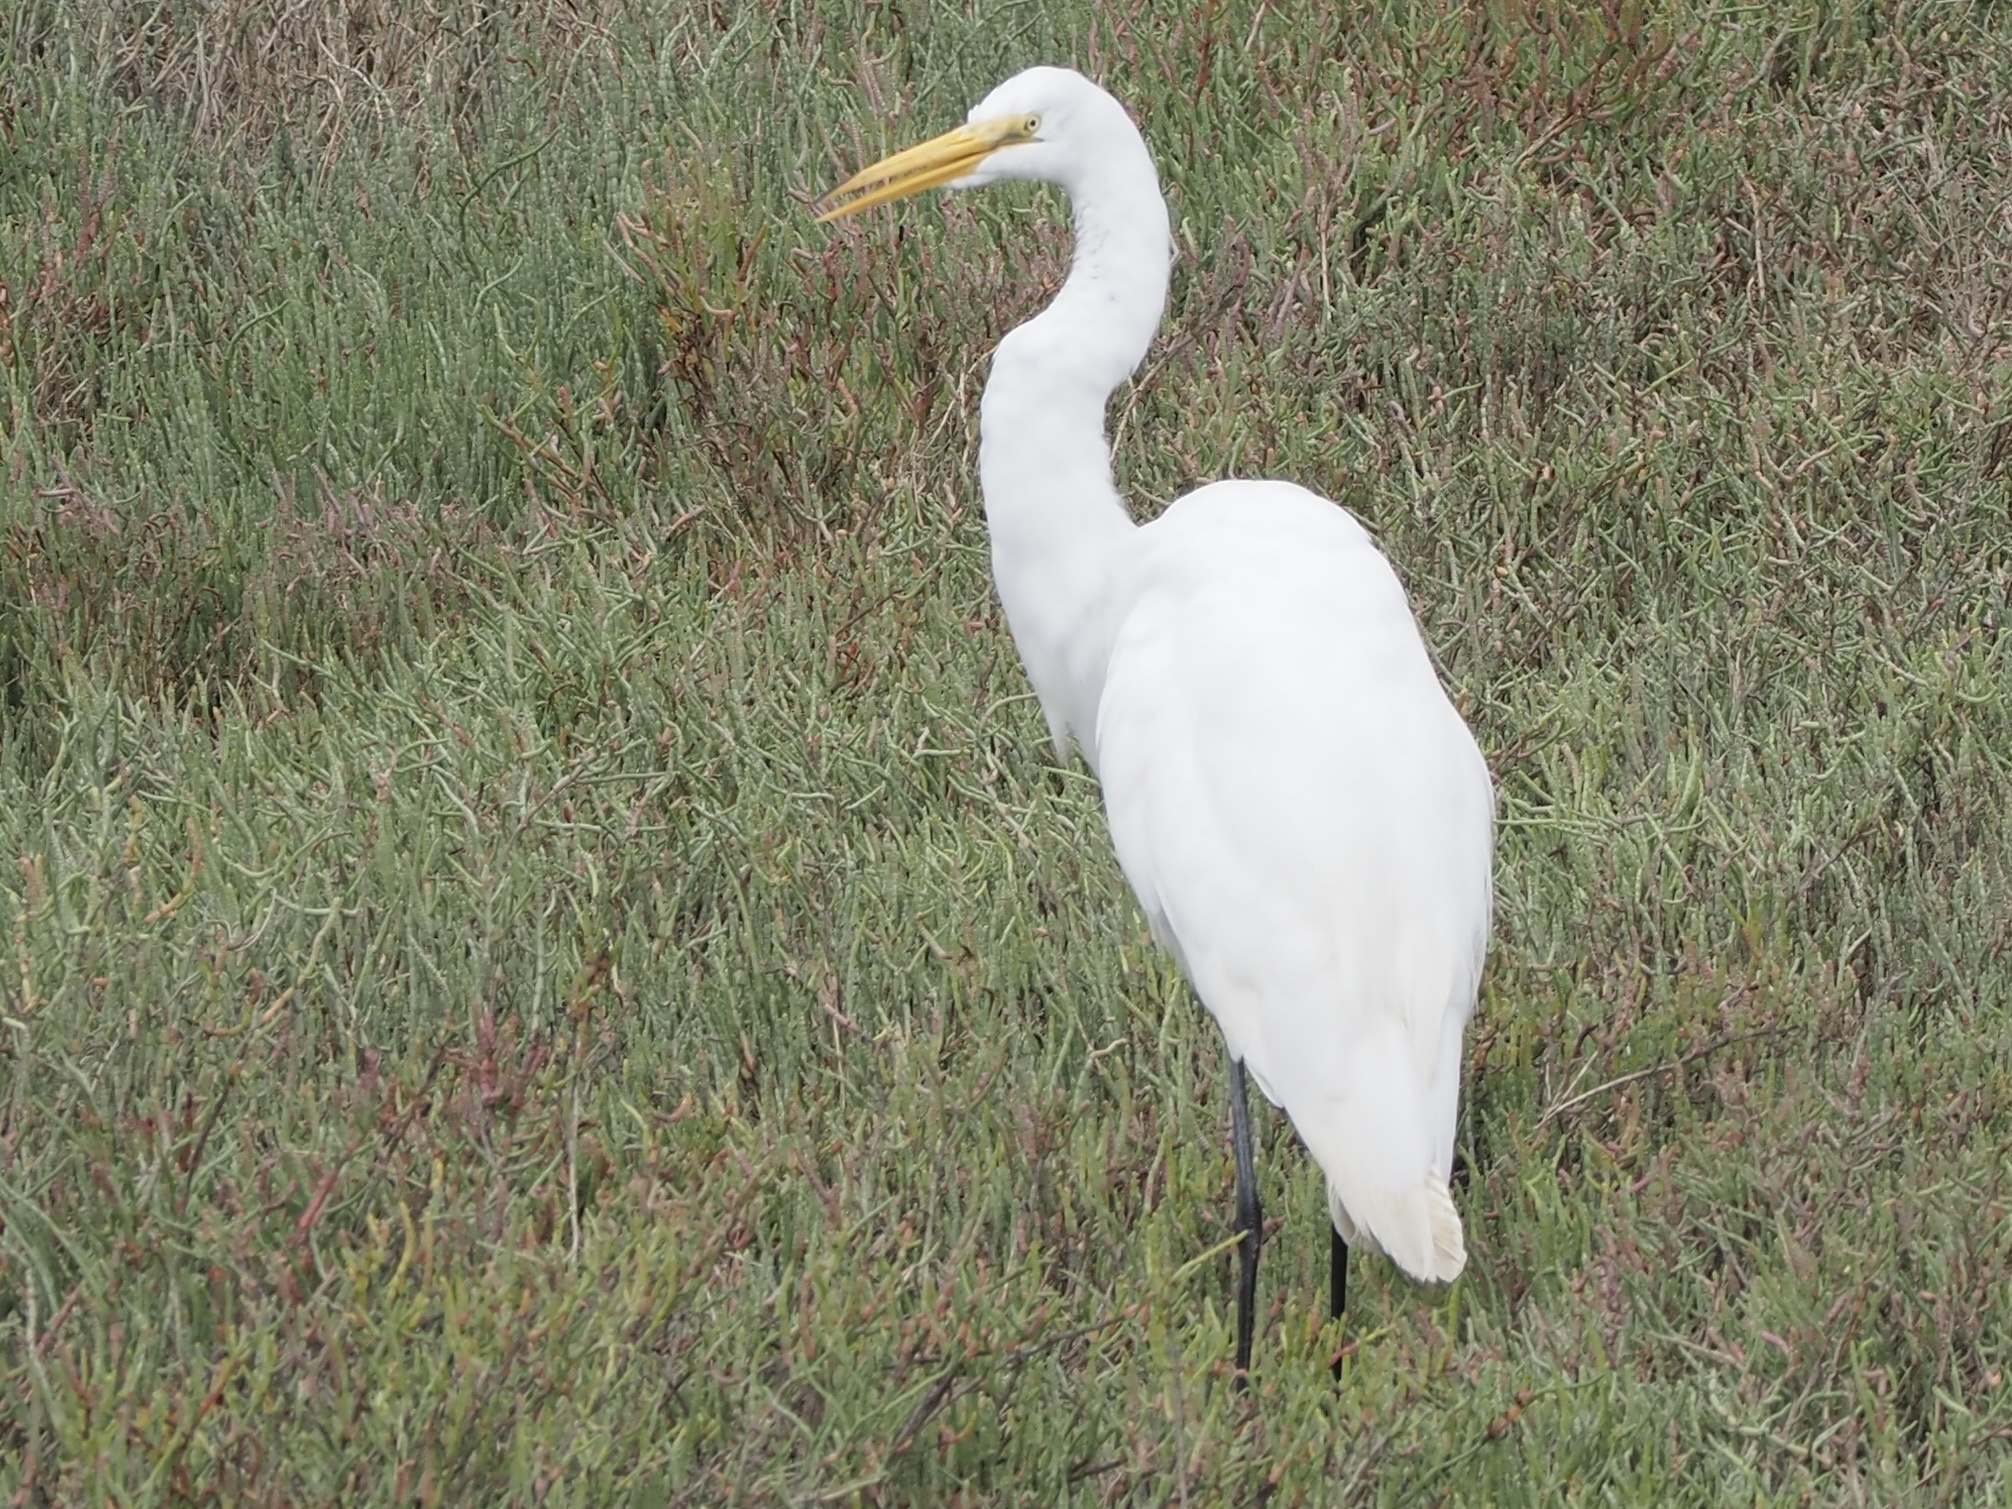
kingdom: Animalia
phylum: Chordata
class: Aves
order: Pelecaniformes
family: Ardeidae
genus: Ardea
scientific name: Ardea alba
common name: Great egret
